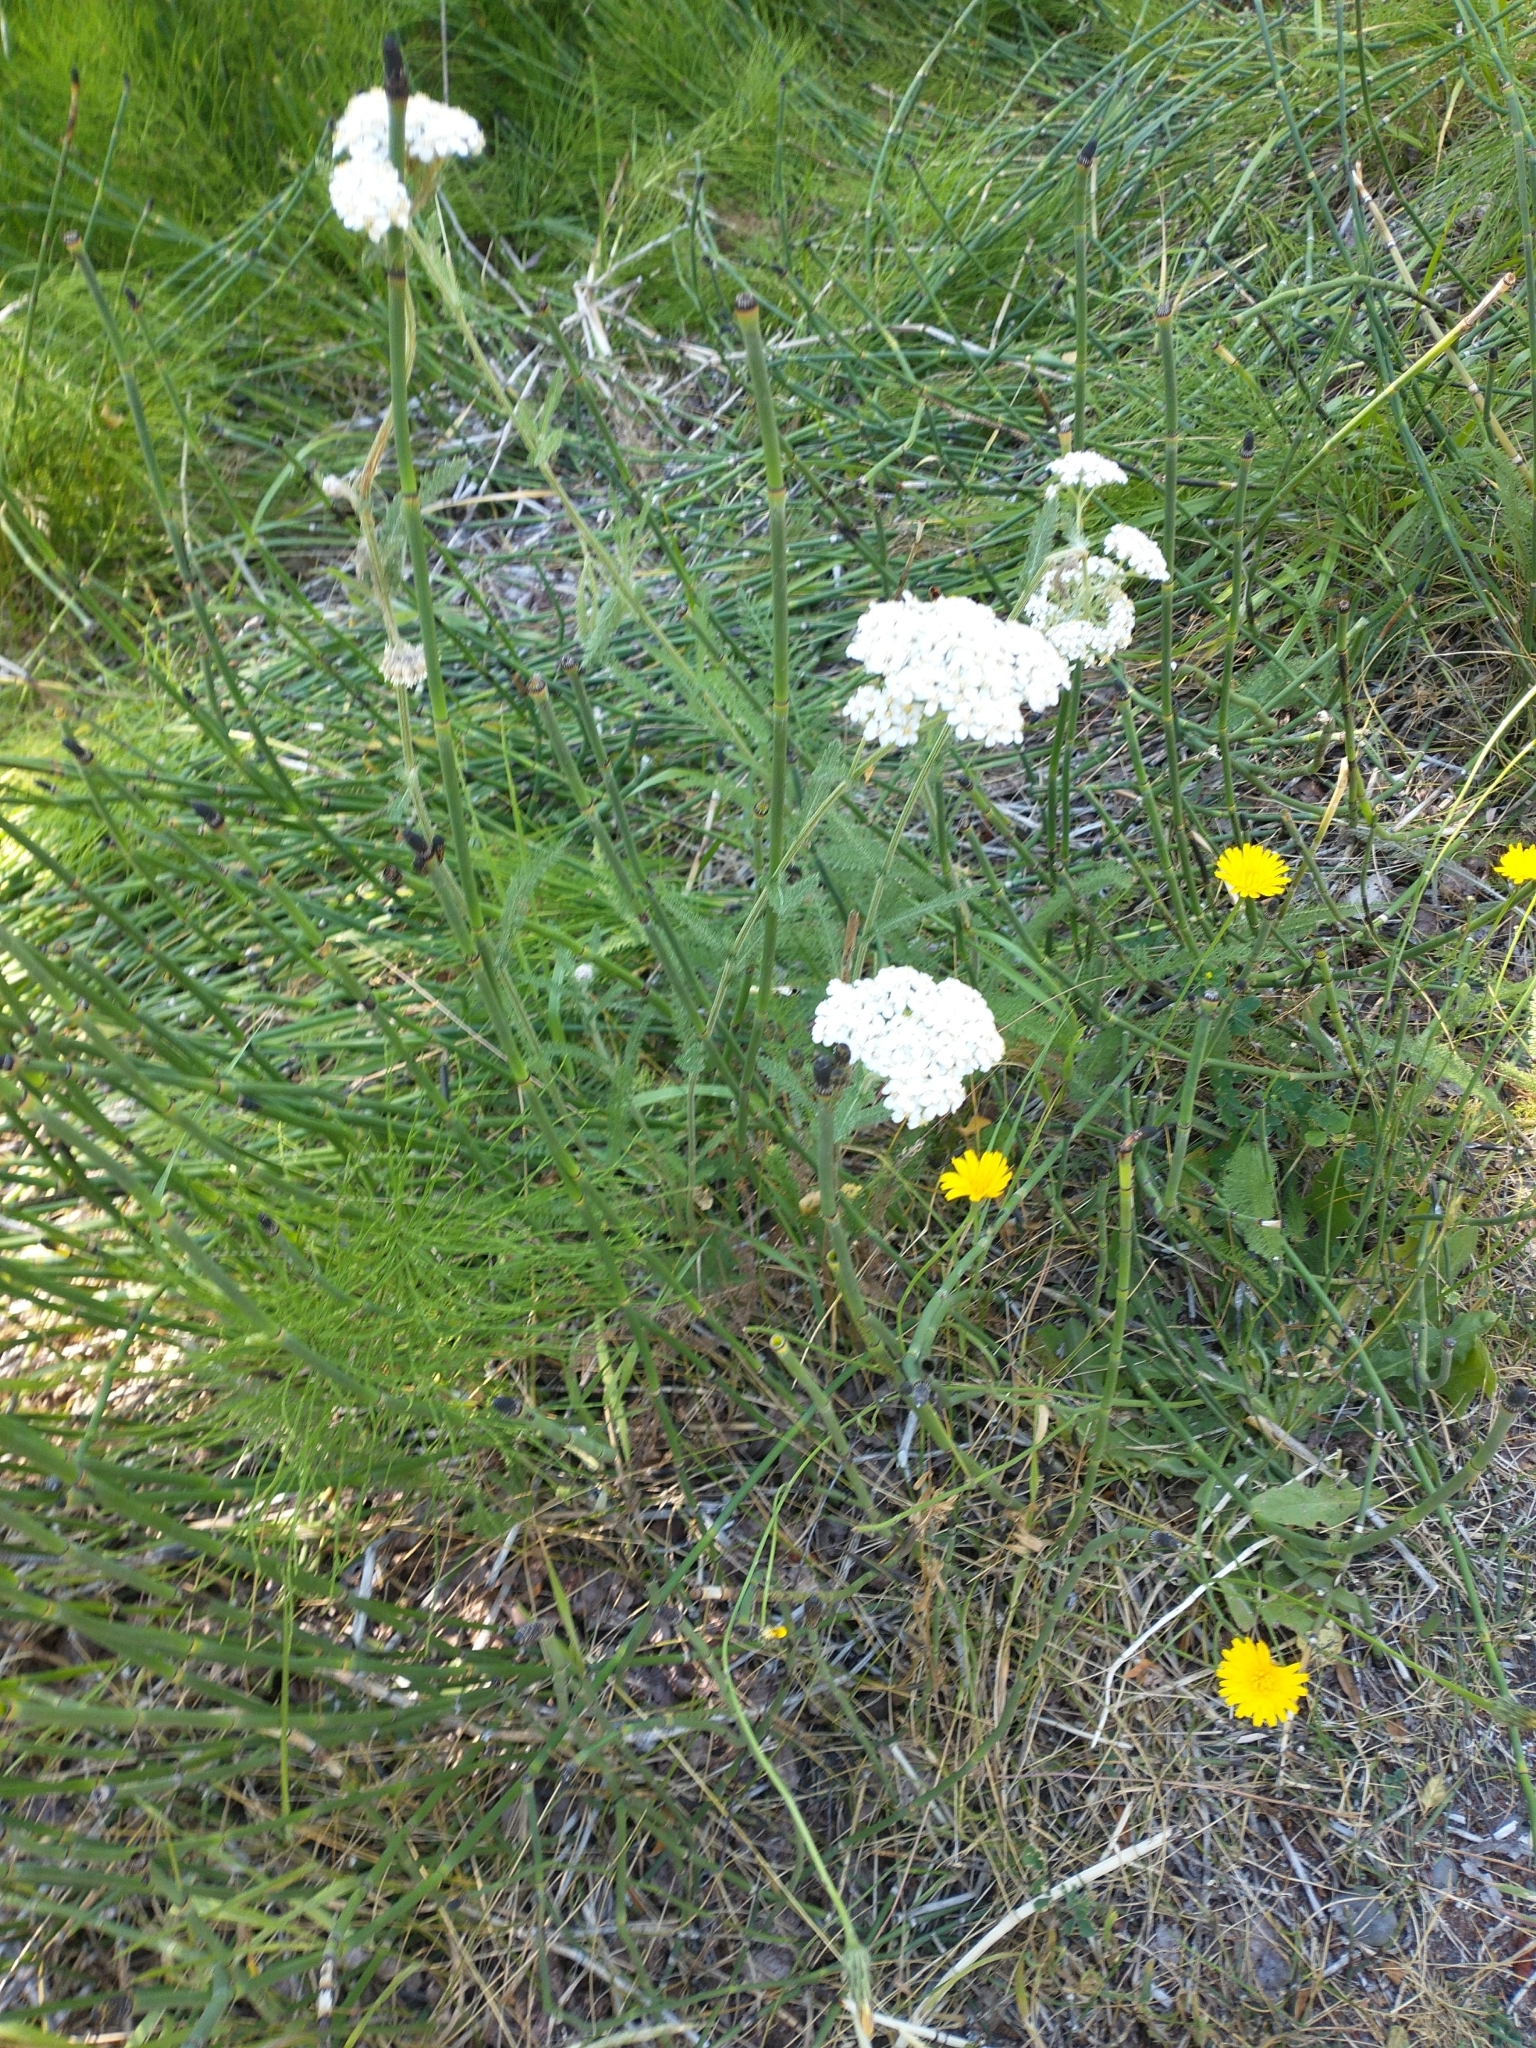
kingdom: Plantae
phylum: Tracheophyta
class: Magnoliopsida
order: Asterales
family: Asteraceae
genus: Achillea
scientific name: Achillea millefolium
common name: Yarrow
